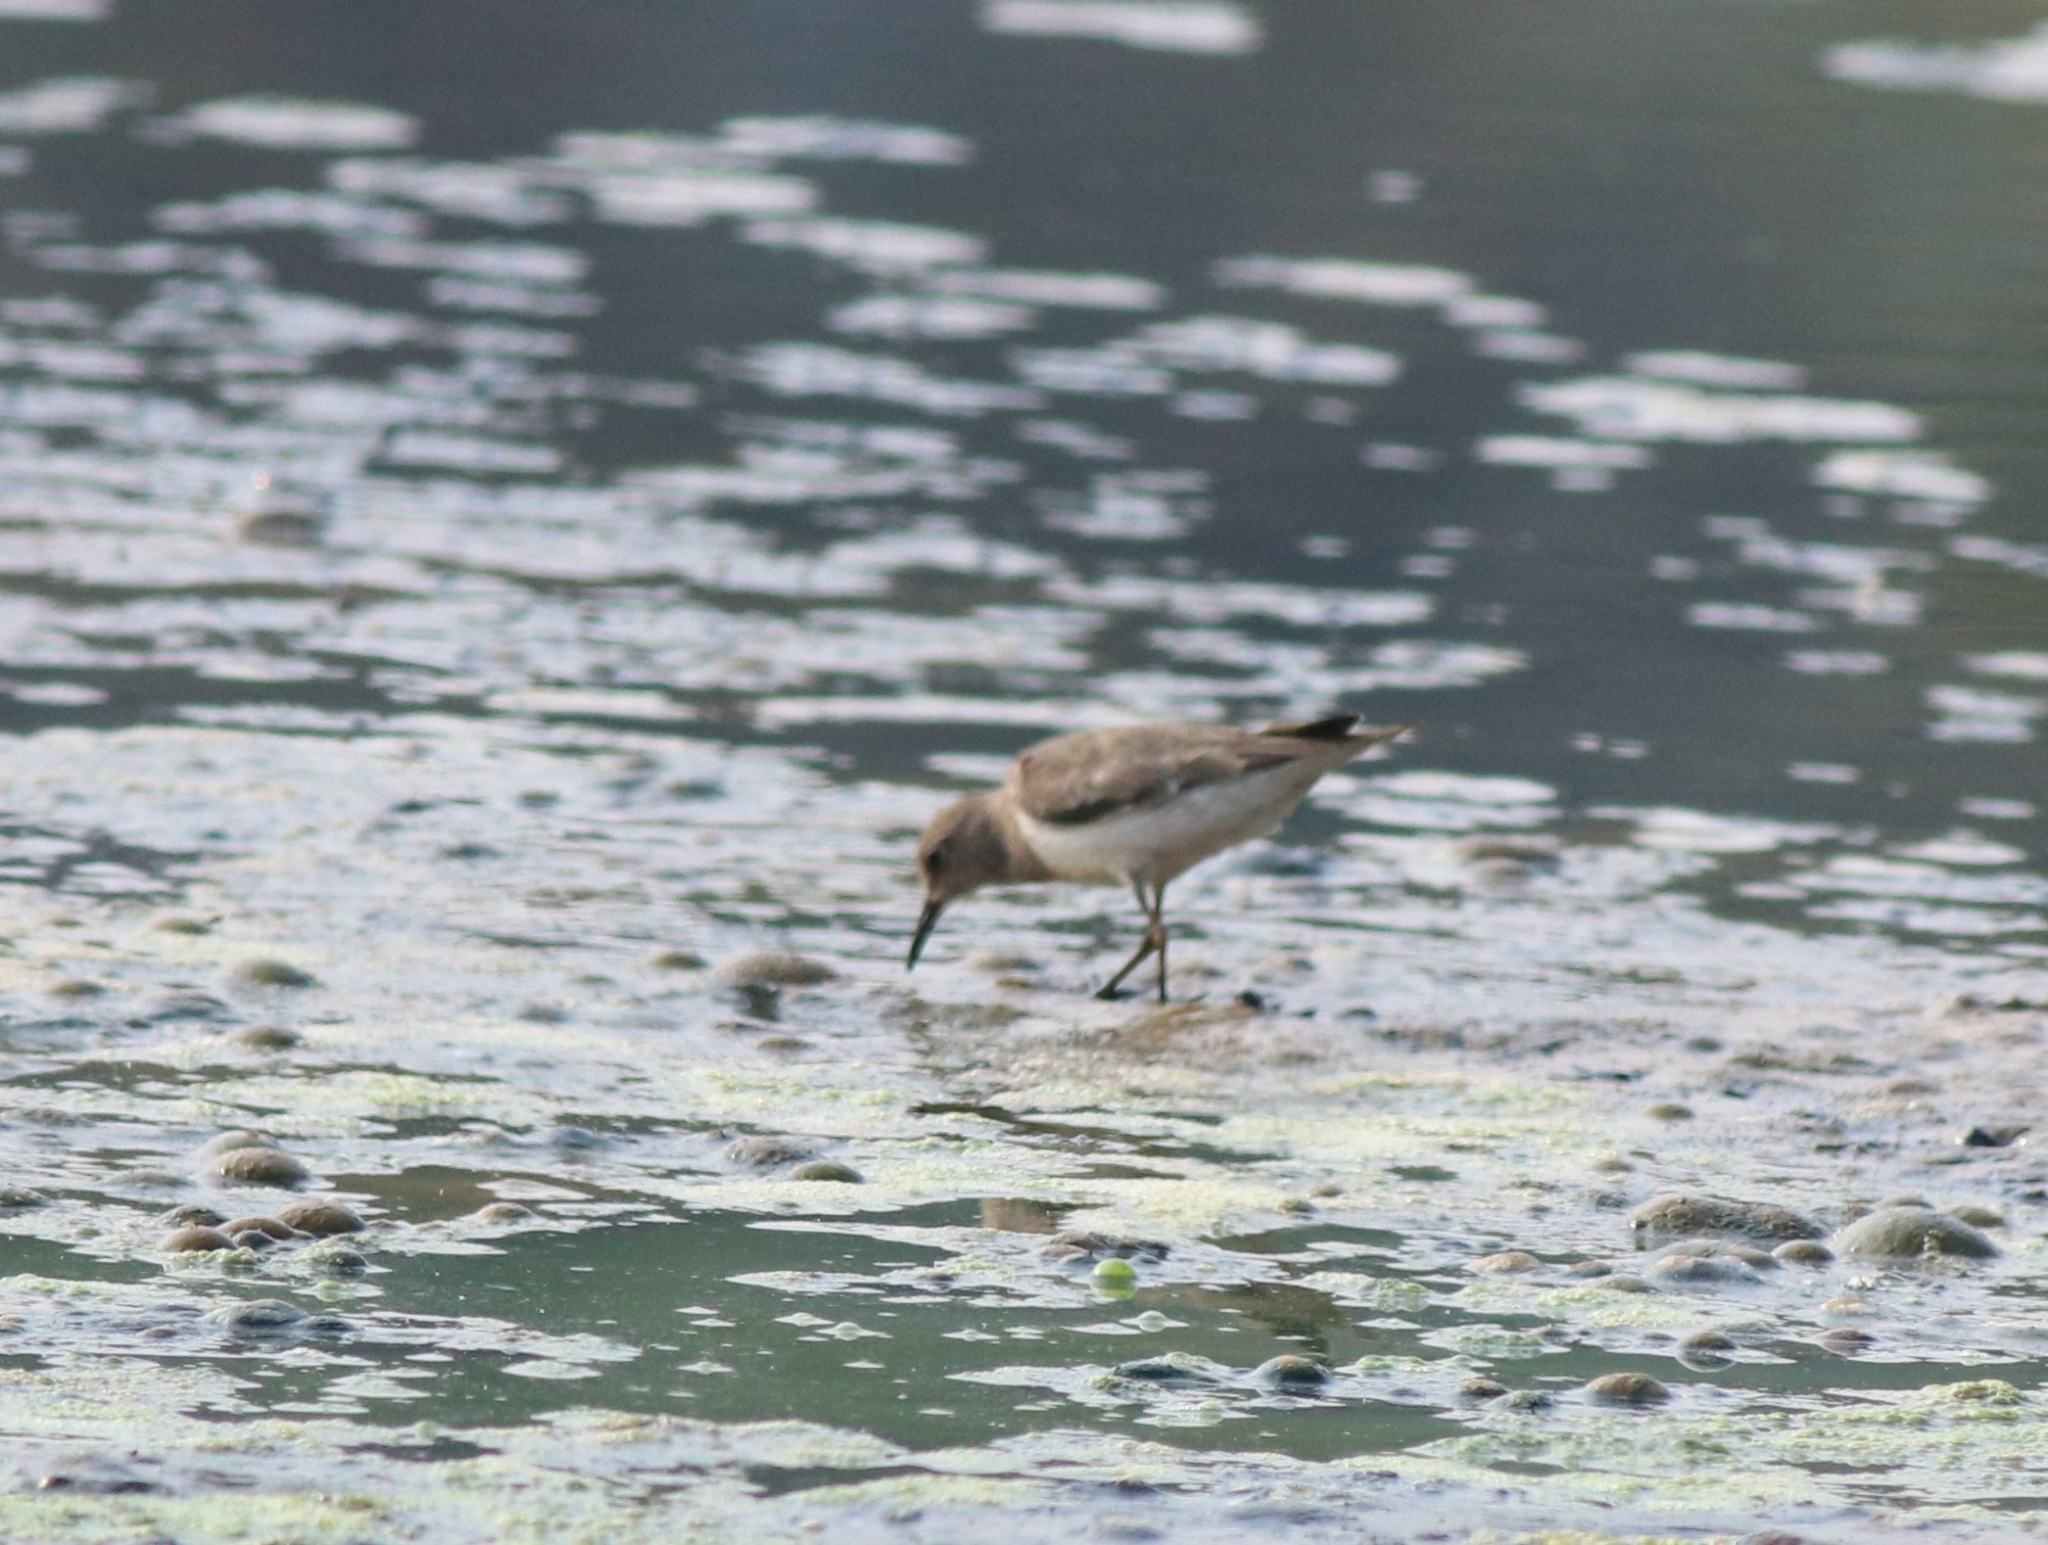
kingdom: Animalia
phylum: Chordata
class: Aves
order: Charadriiformes
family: Scolopacidae
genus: Calidris
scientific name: Calidris temminckii
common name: Temminck's stint
